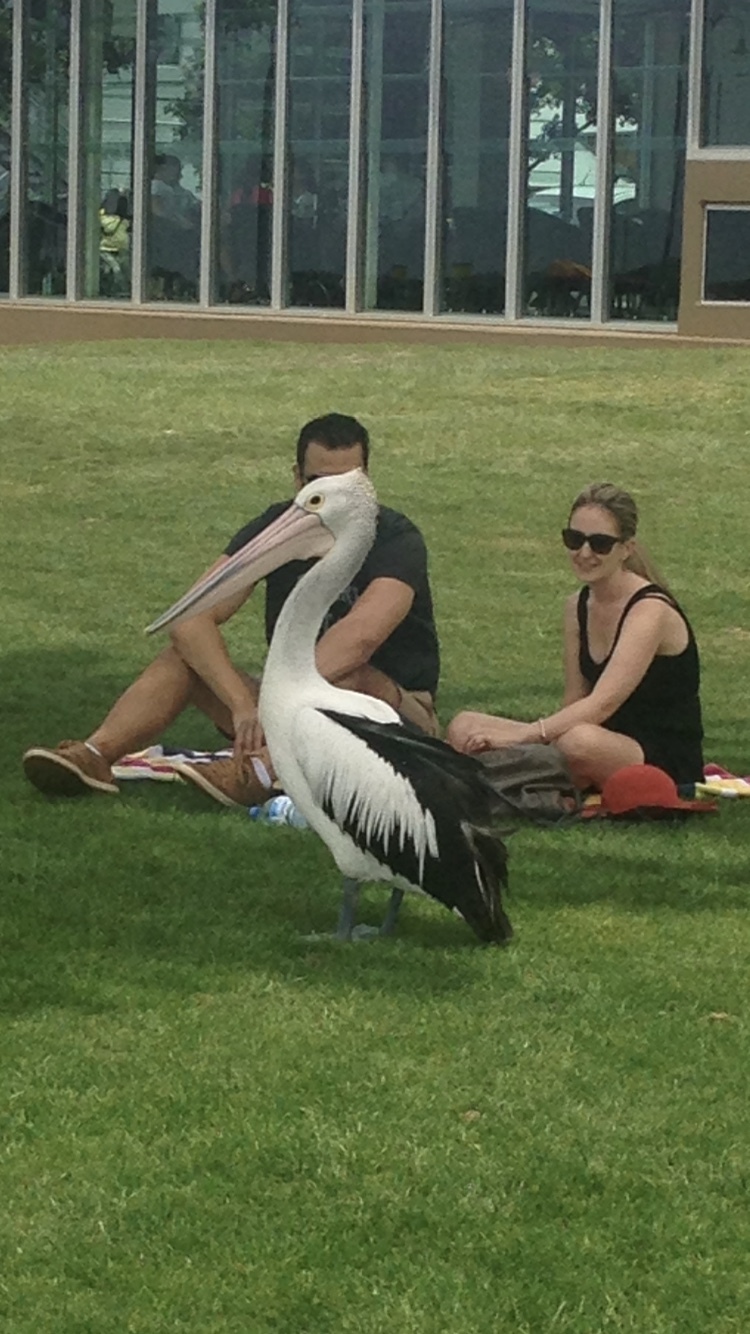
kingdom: Animalia
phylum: Chordata
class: Aves
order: Pelecaniformes
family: Pelecanidae
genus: Pelecanus
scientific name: Pelecanus conspicillatus
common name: Australian pelican
